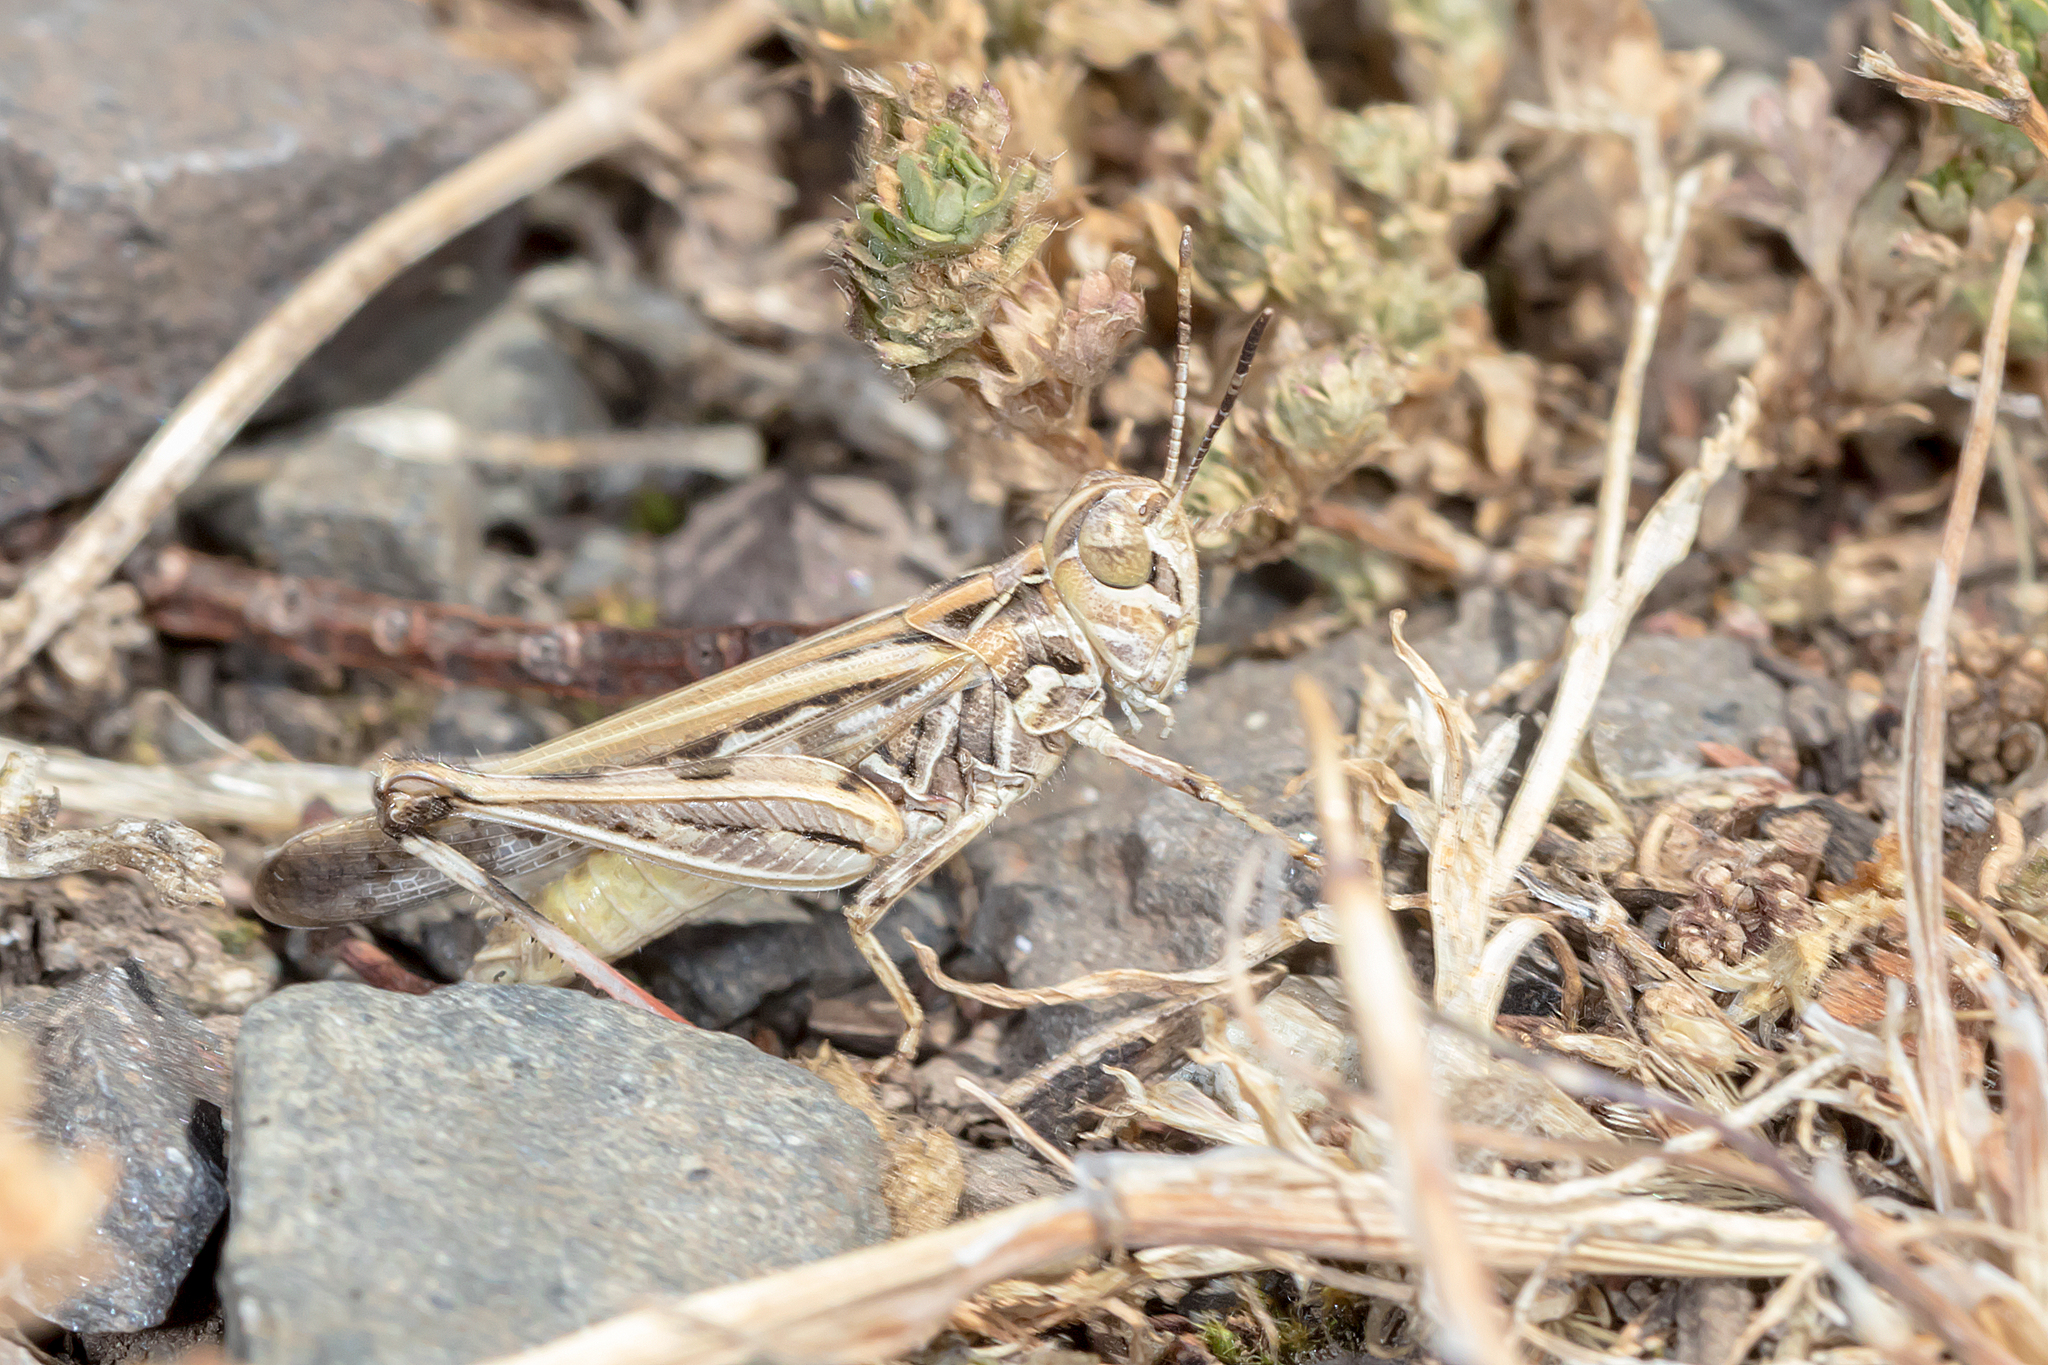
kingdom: Animalia
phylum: Arthropoda
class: Insecta
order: Orthoptera
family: Acrididae
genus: Austroicetes
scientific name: Austroicetes vulgaris
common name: Southeastern austroicetes
